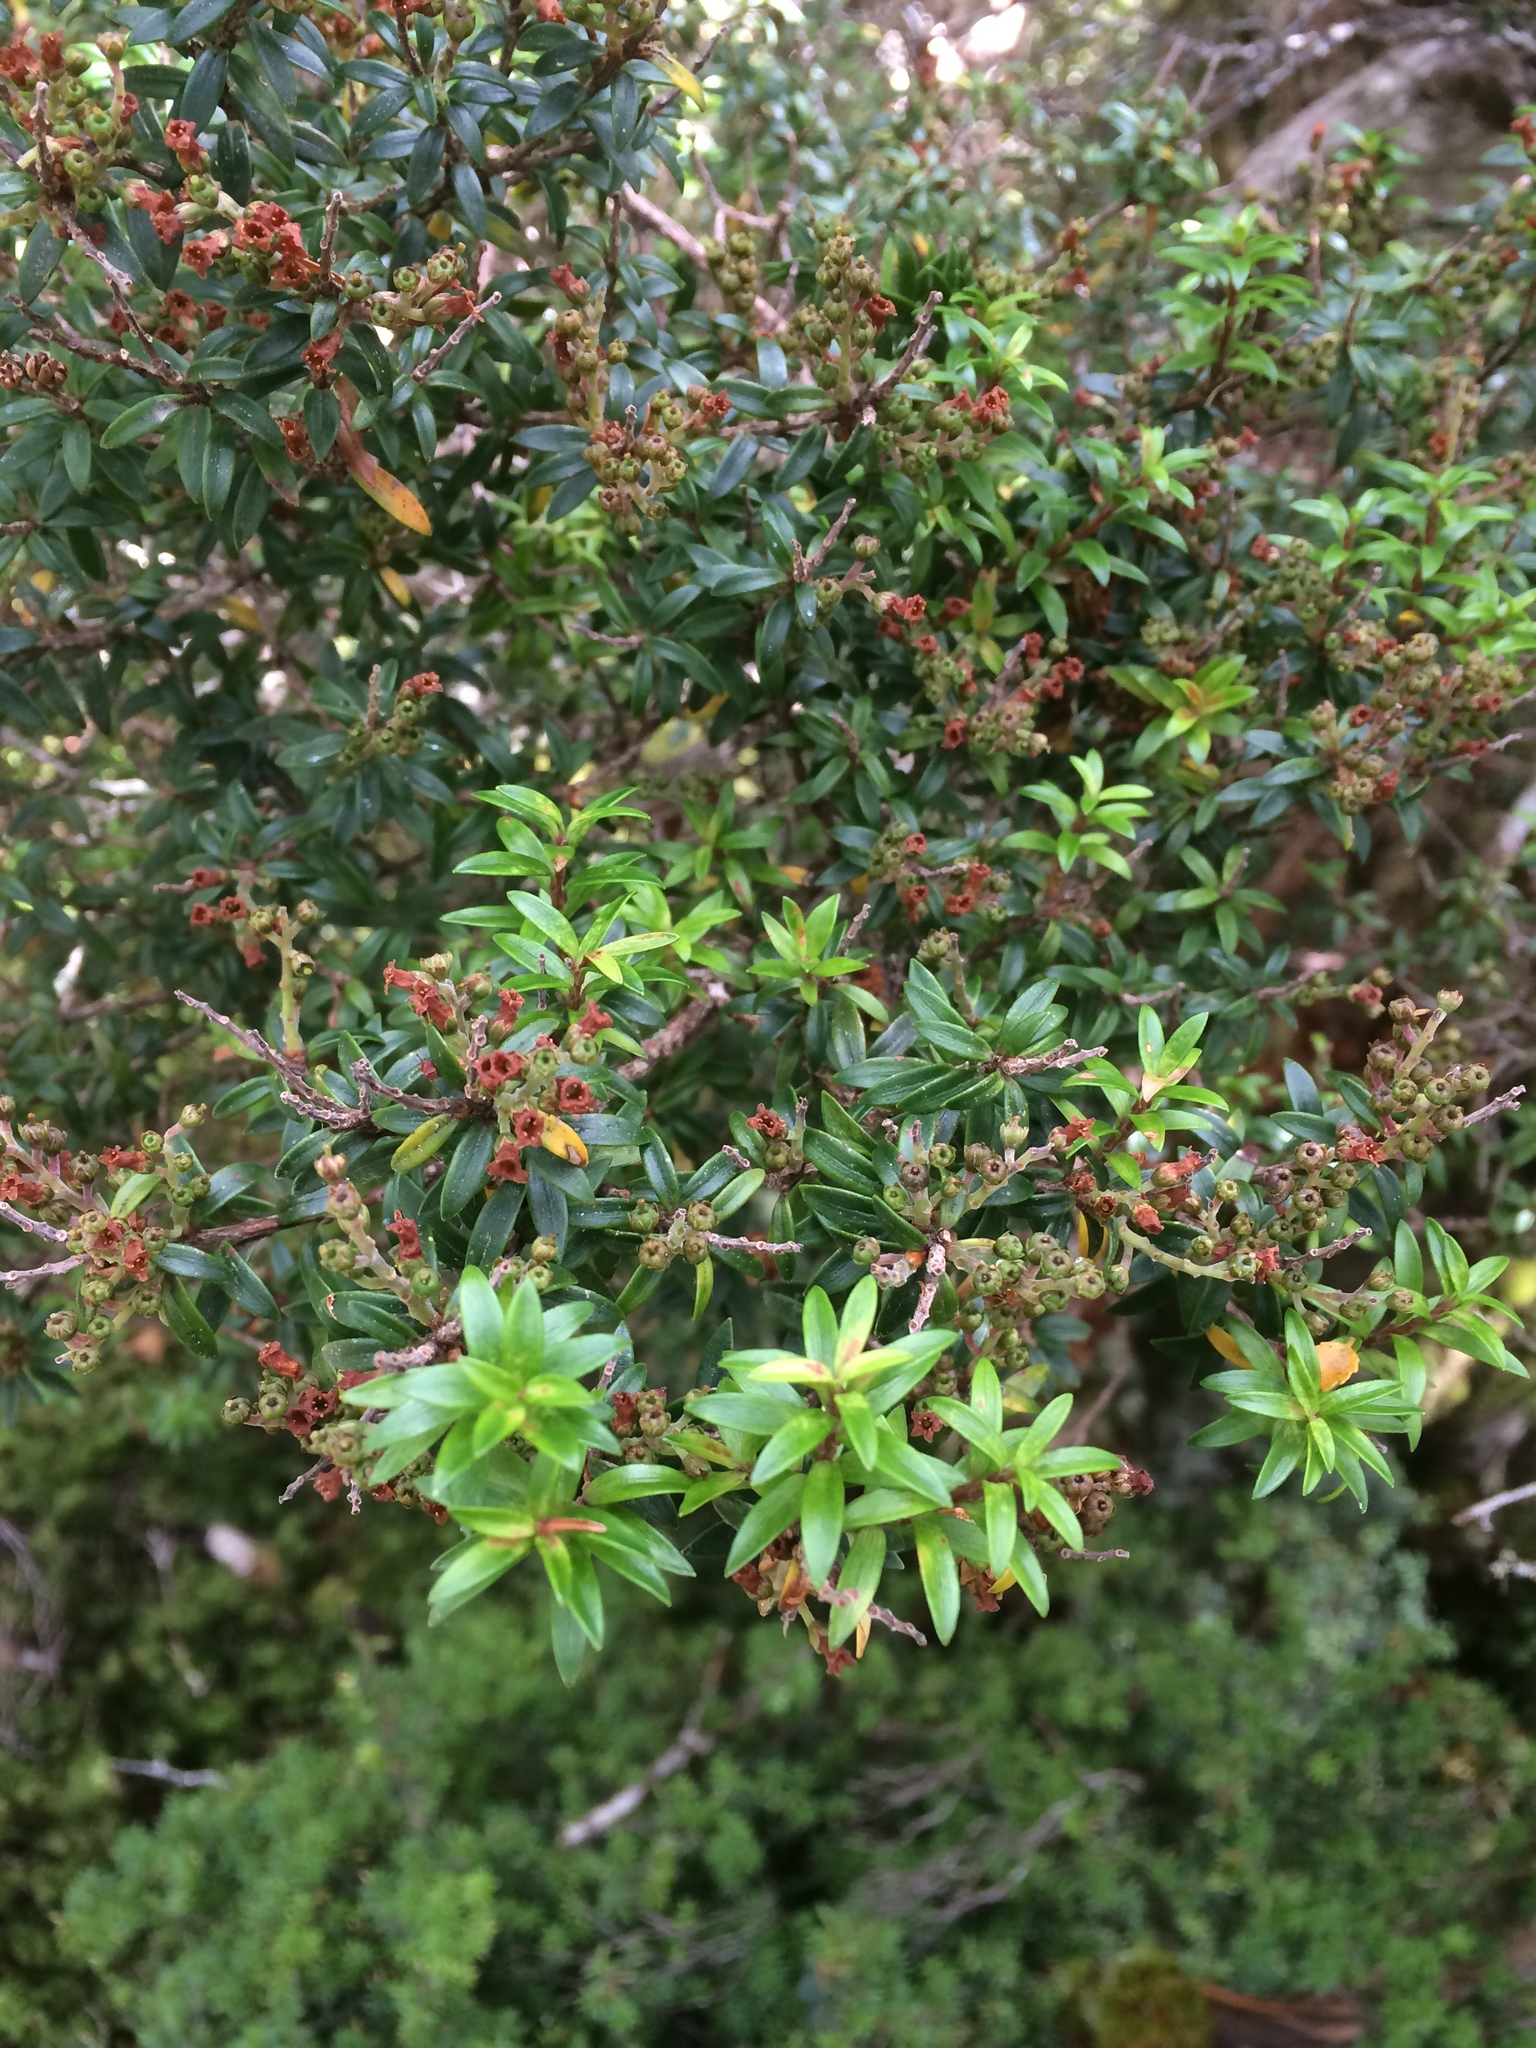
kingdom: Plantae
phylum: Tracheophyta
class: Magnoliopsida
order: Ericales
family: Ericaceae
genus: Archeria
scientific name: Archeria traversii
